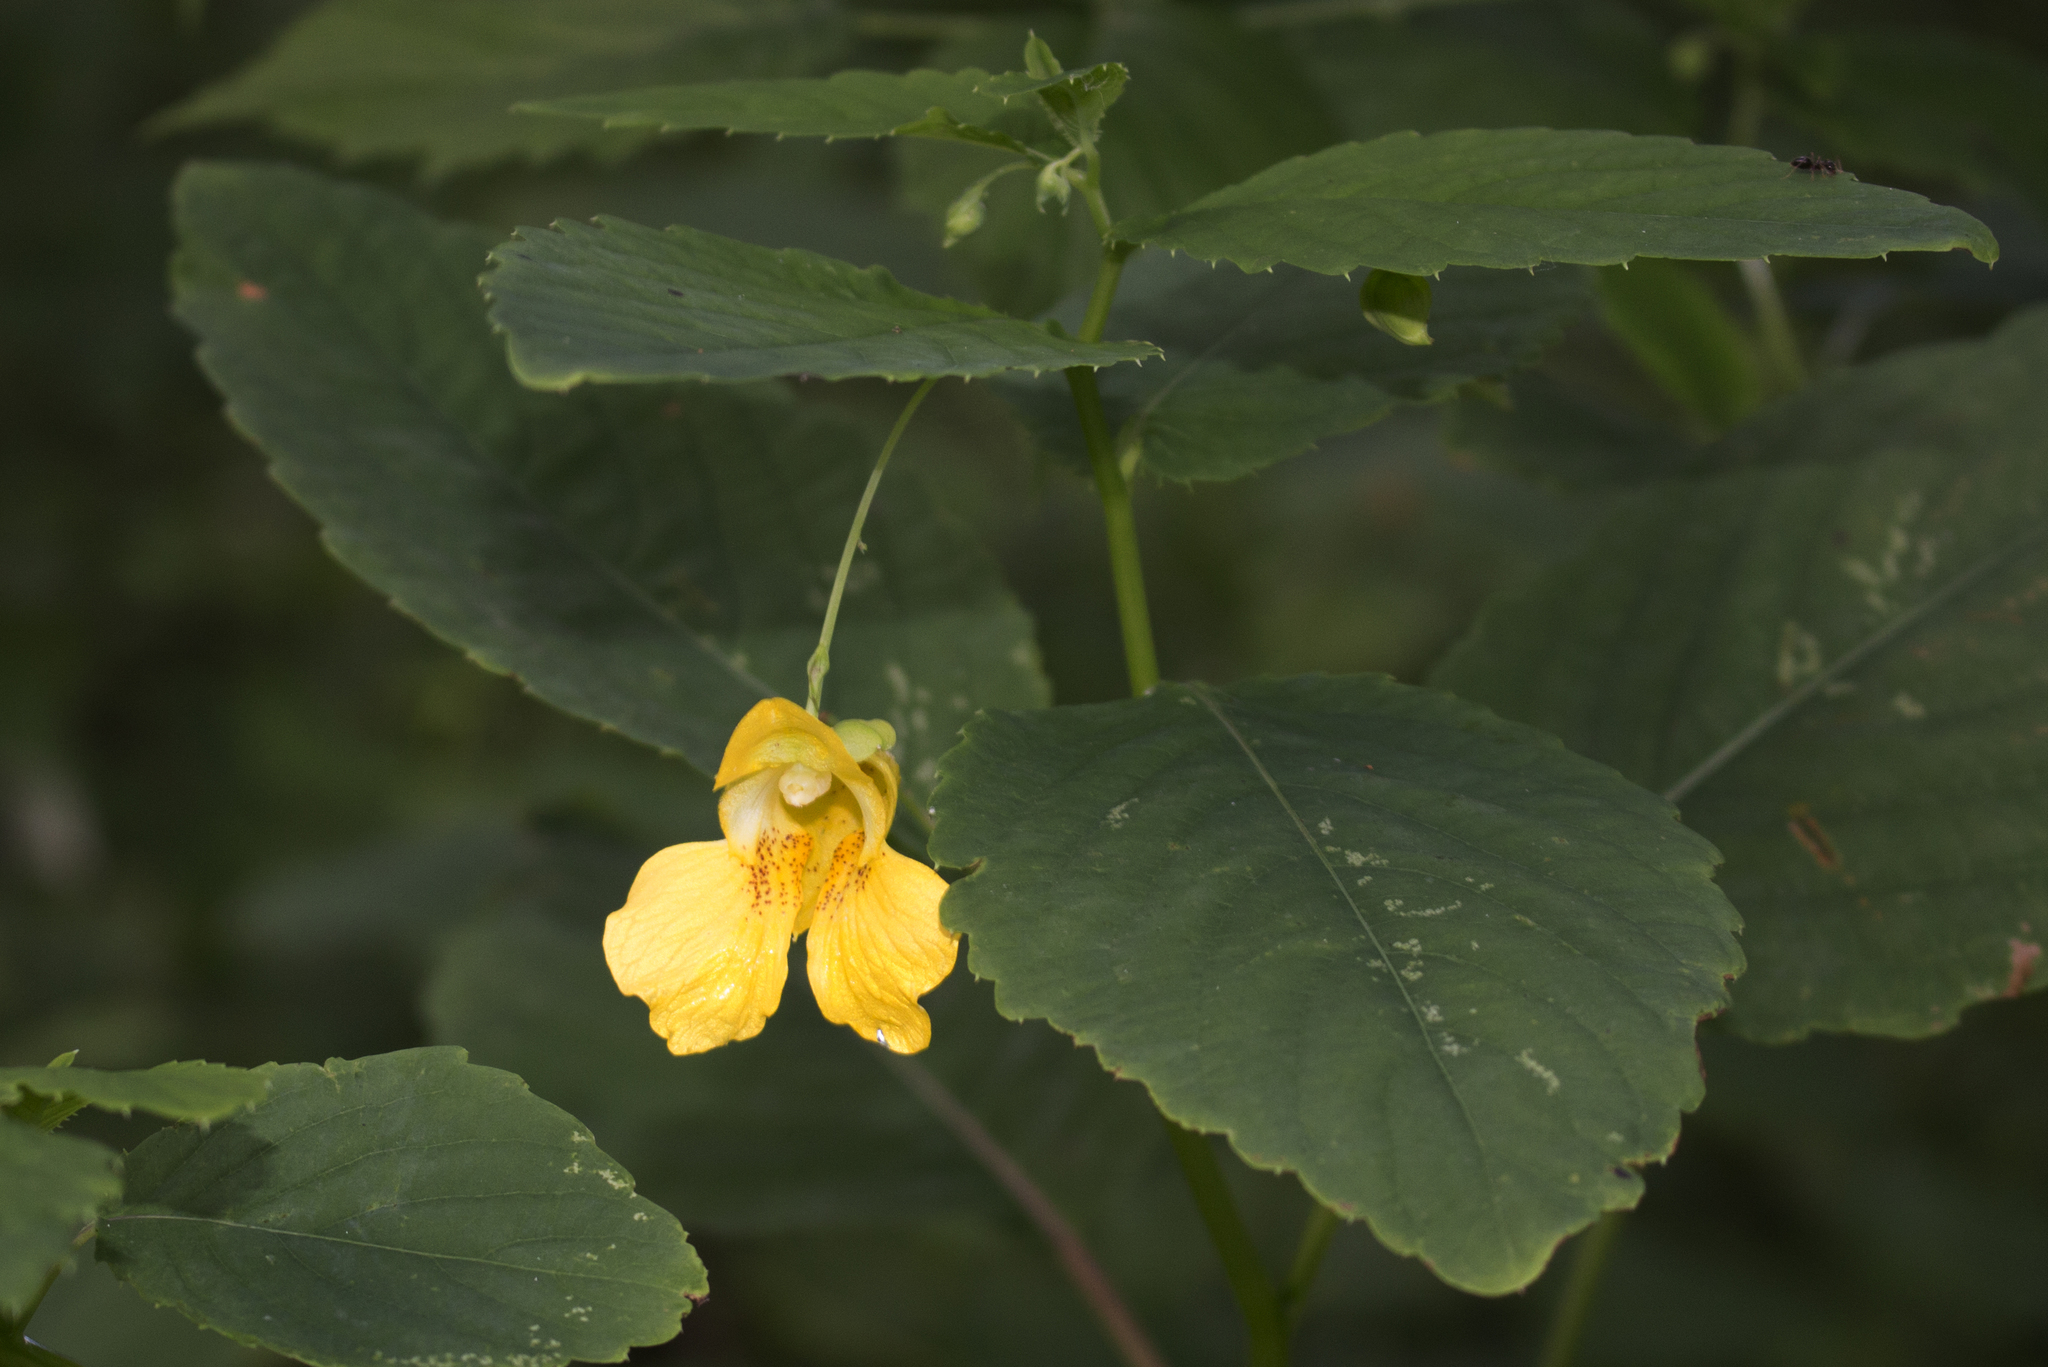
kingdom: Plantae
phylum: Tracheophyta
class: Magnoliopsida
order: Ericales
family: Balsaminaceae
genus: Impatiens
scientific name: Impatiens pallida
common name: Pale snapweed
